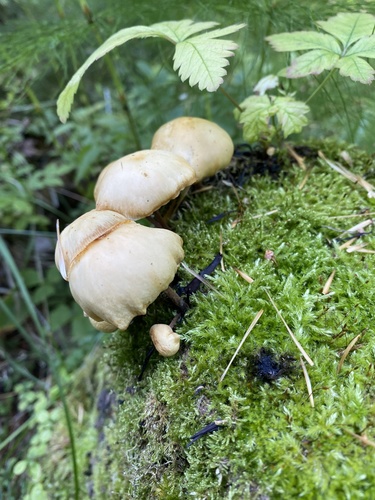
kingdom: Fungi
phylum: Basidiomycota
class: Agaricomycetes
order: Agaricales
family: Physalacriaceae
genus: Flammulina
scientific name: Flammulina
